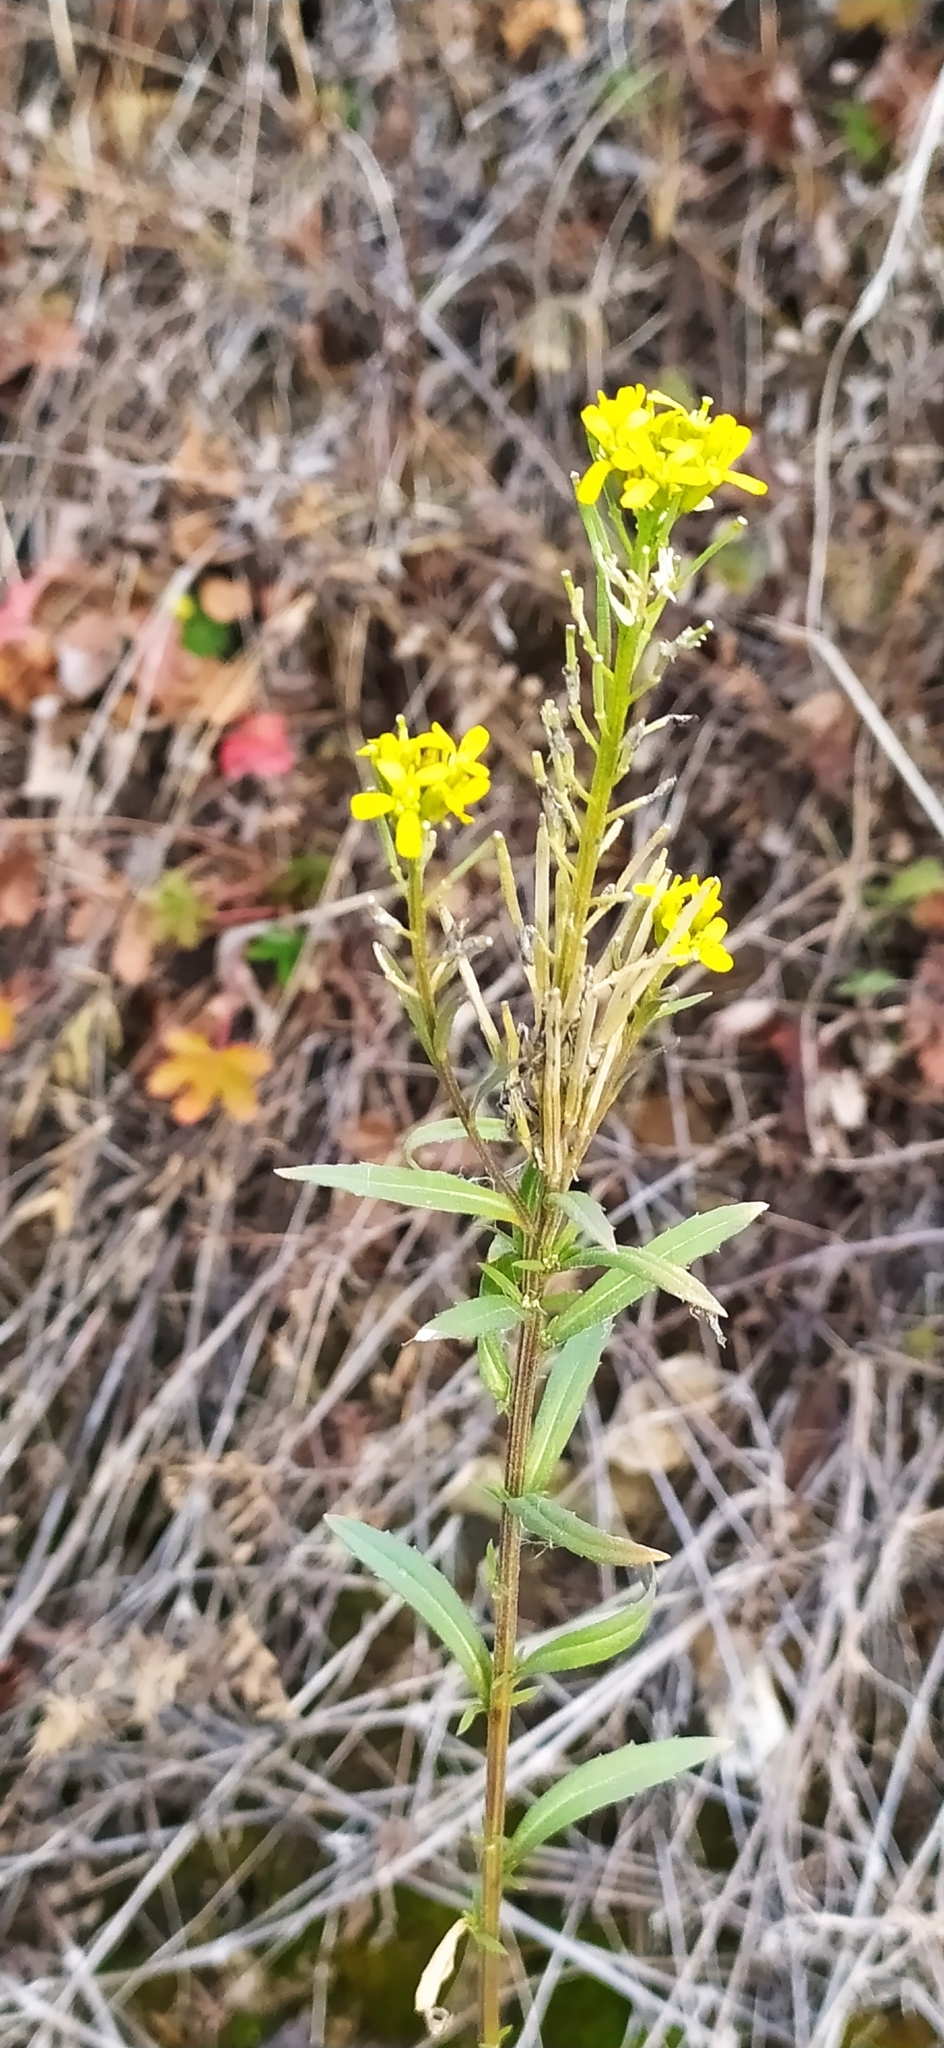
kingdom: Plantae
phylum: Tracheophyta
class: Magnoliopsida
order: Brassicales
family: Brassicaceae
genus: Erysimum
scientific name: Erysimum marschallianum
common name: Hard wallflower
